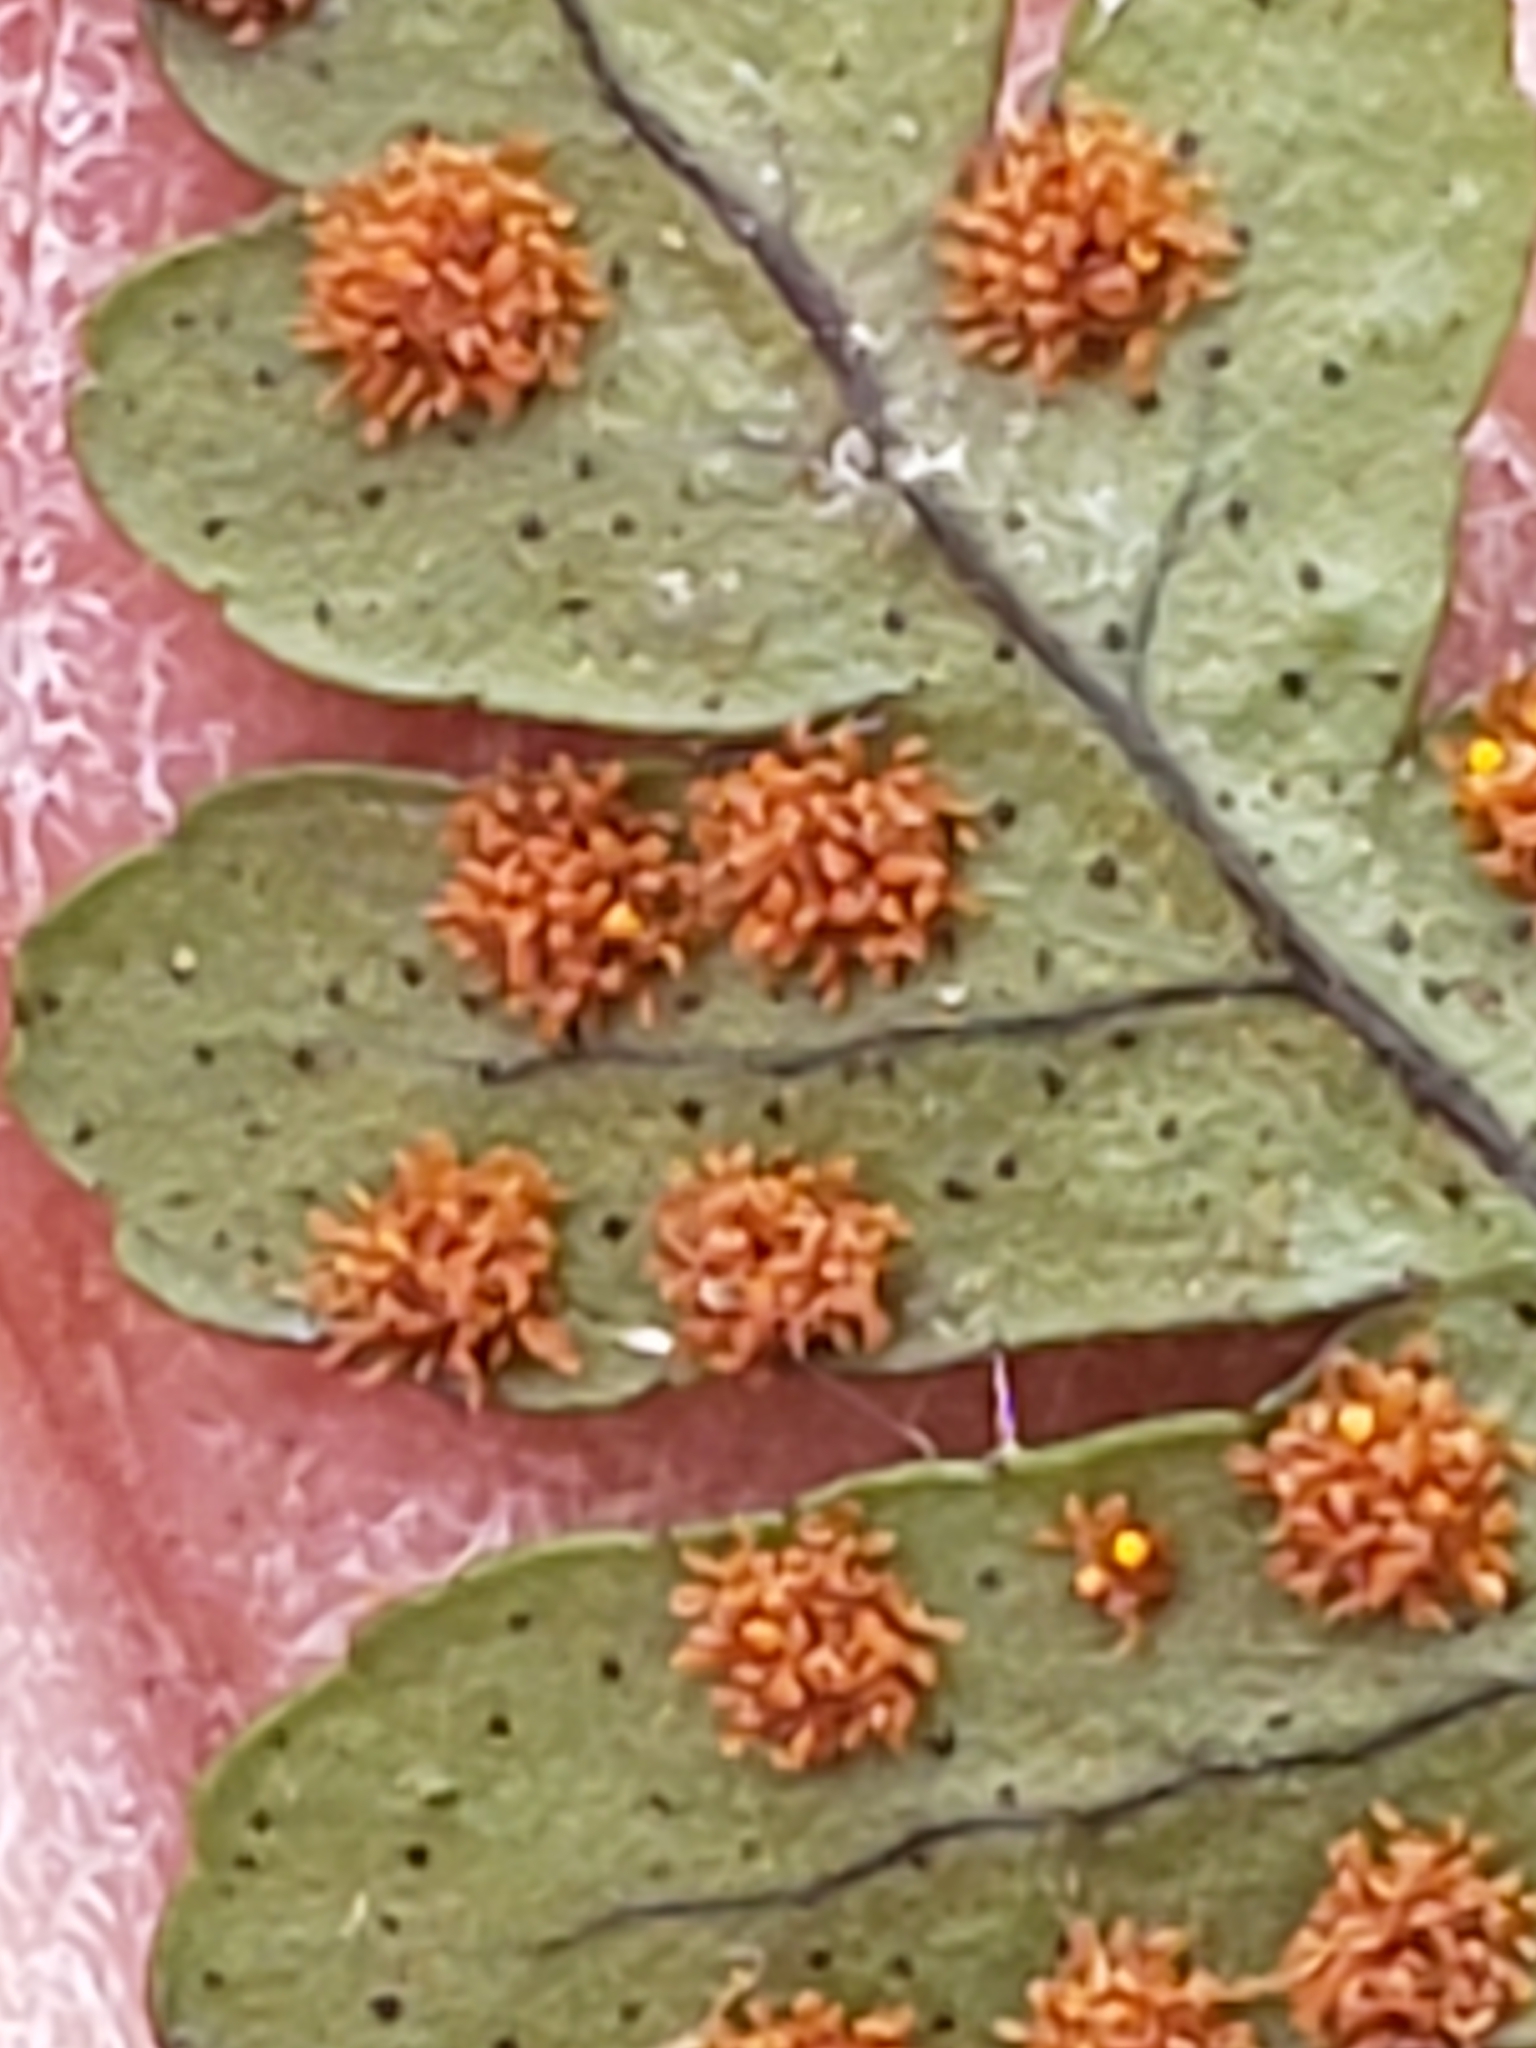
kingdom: Plantae
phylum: Tracheophyta
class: Polypodiopsida
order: Polypodiales
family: Polypodiaceae
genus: Polypodium
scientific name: Polypodium virginianum
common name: American wall fern
